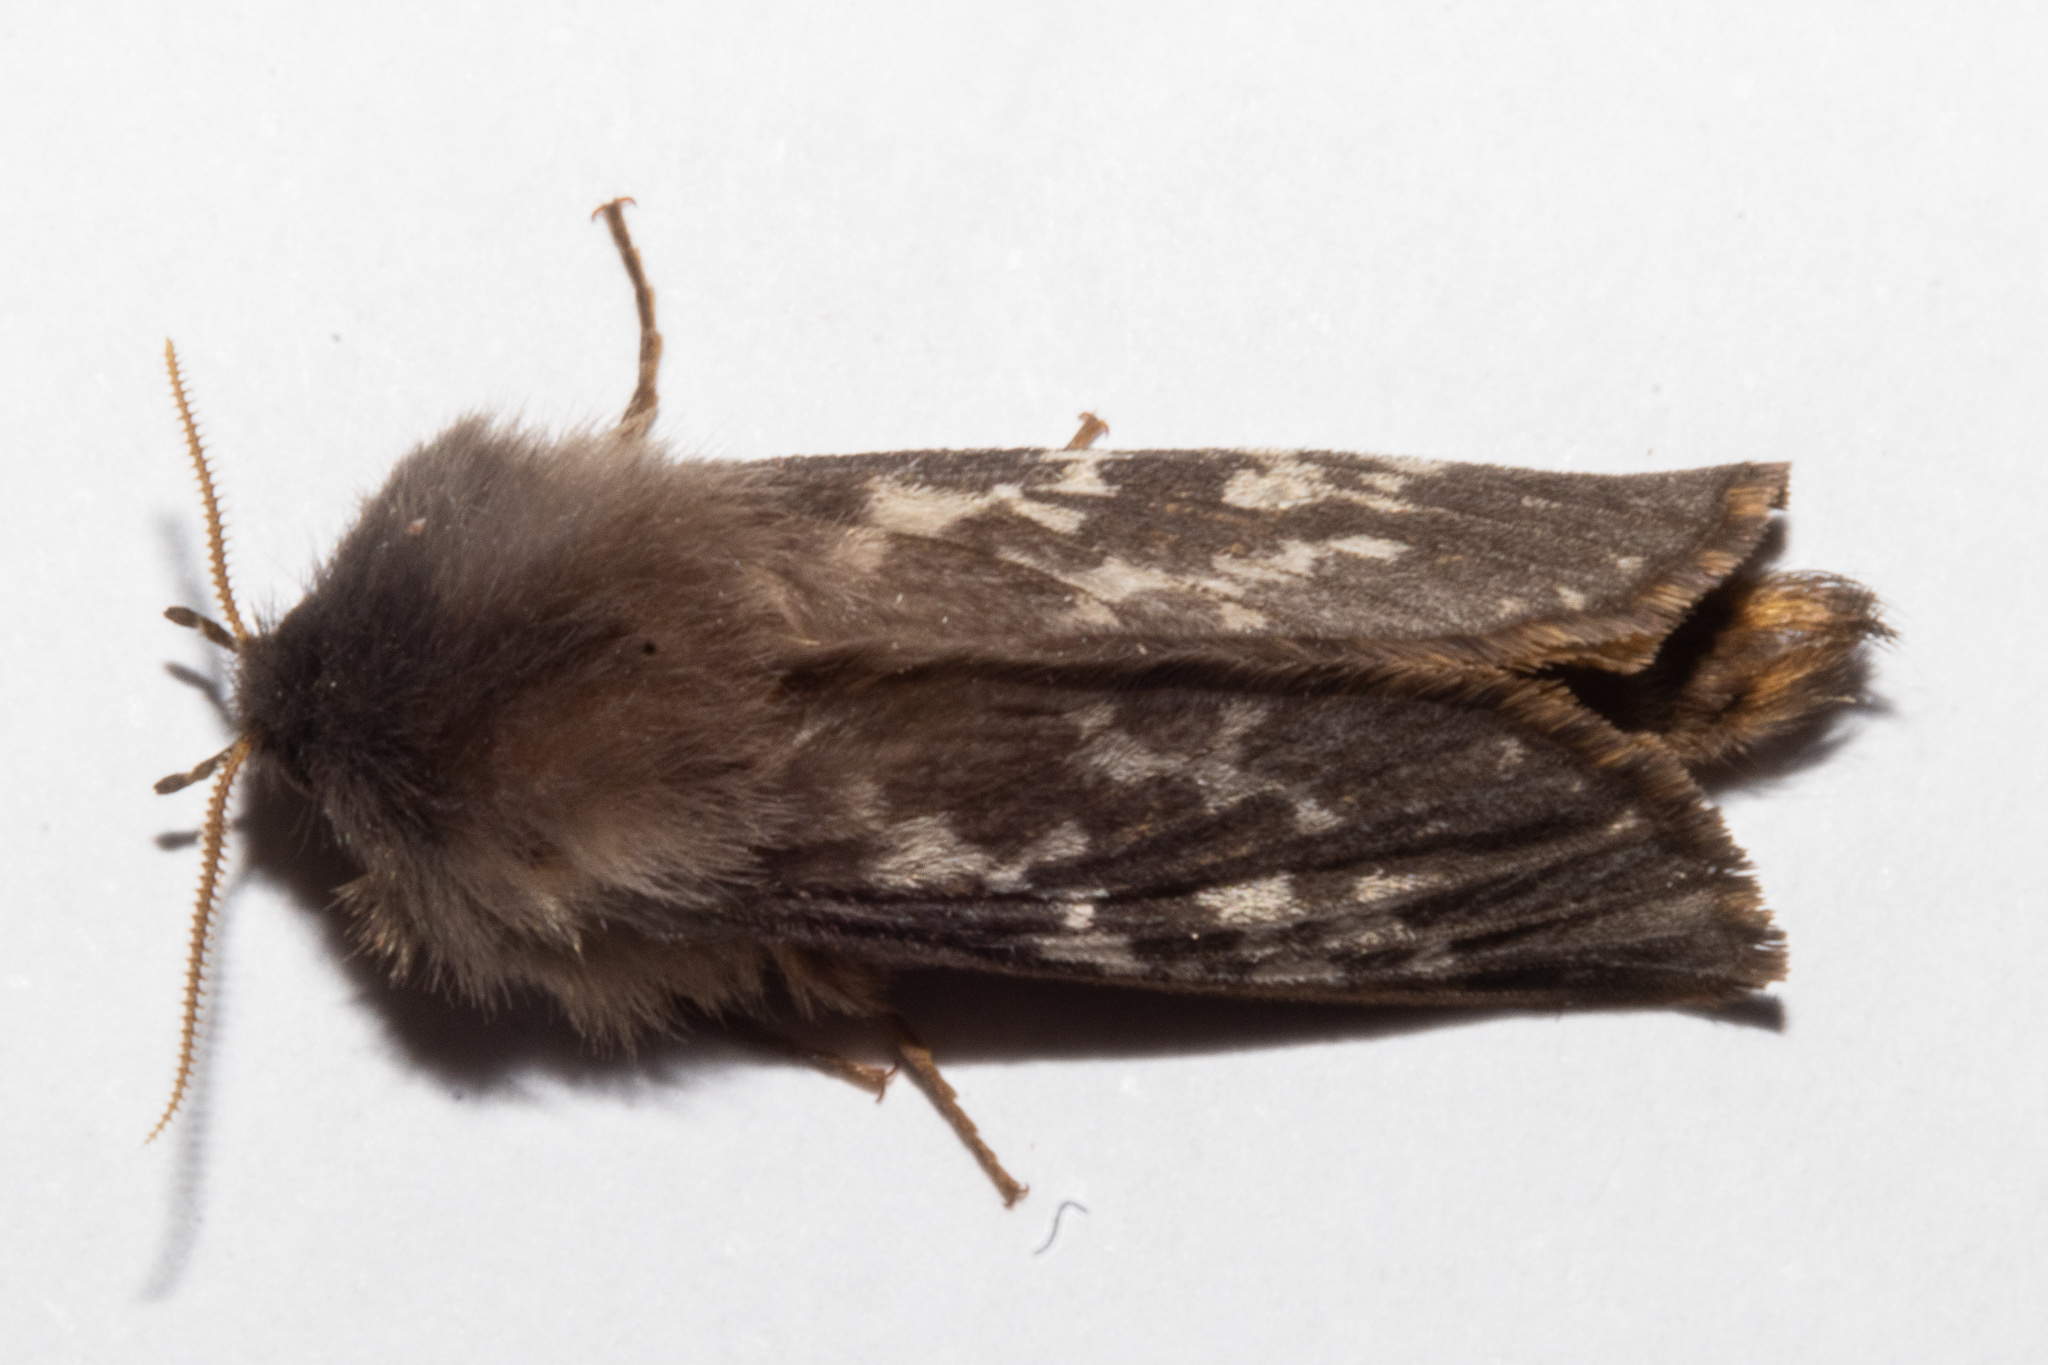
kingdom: Animalia
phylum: Arthropoda
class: Insecta
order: Lepidoptera
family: Hepialidae
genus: Cladoxycanus
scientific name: Cladoxycanus minos
